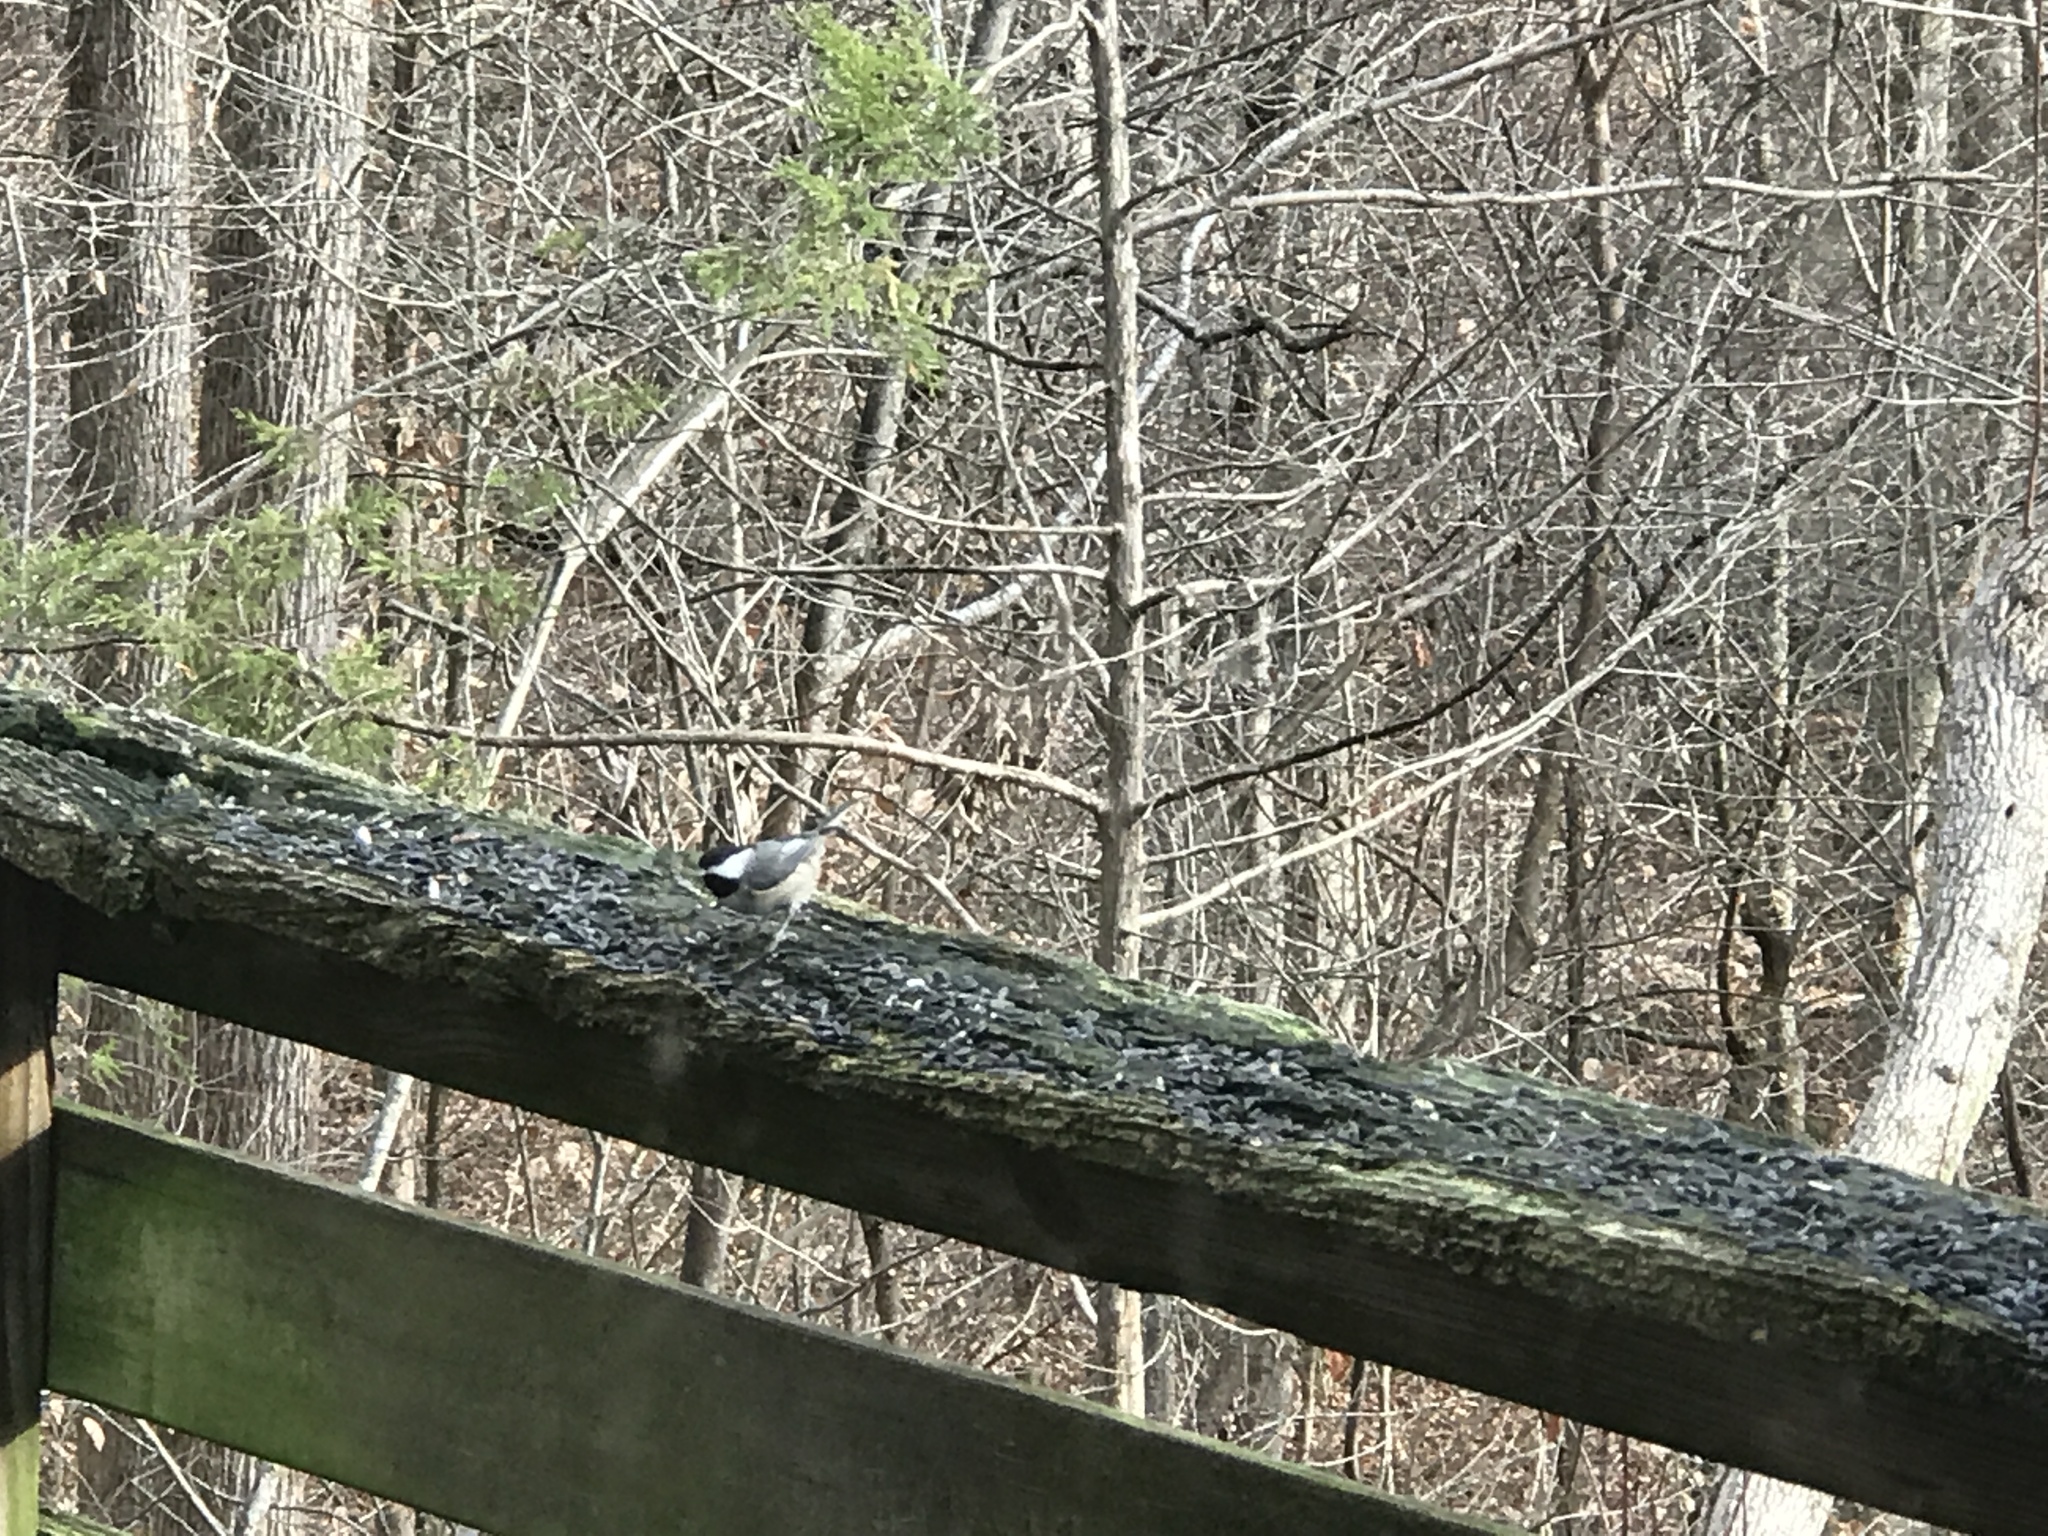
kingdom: Animalia
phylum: Chordata
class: Aves
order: Passeriformes
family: Paridae
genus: Poecile
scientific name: Poecile carolinensis
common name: Carolina chickadee
